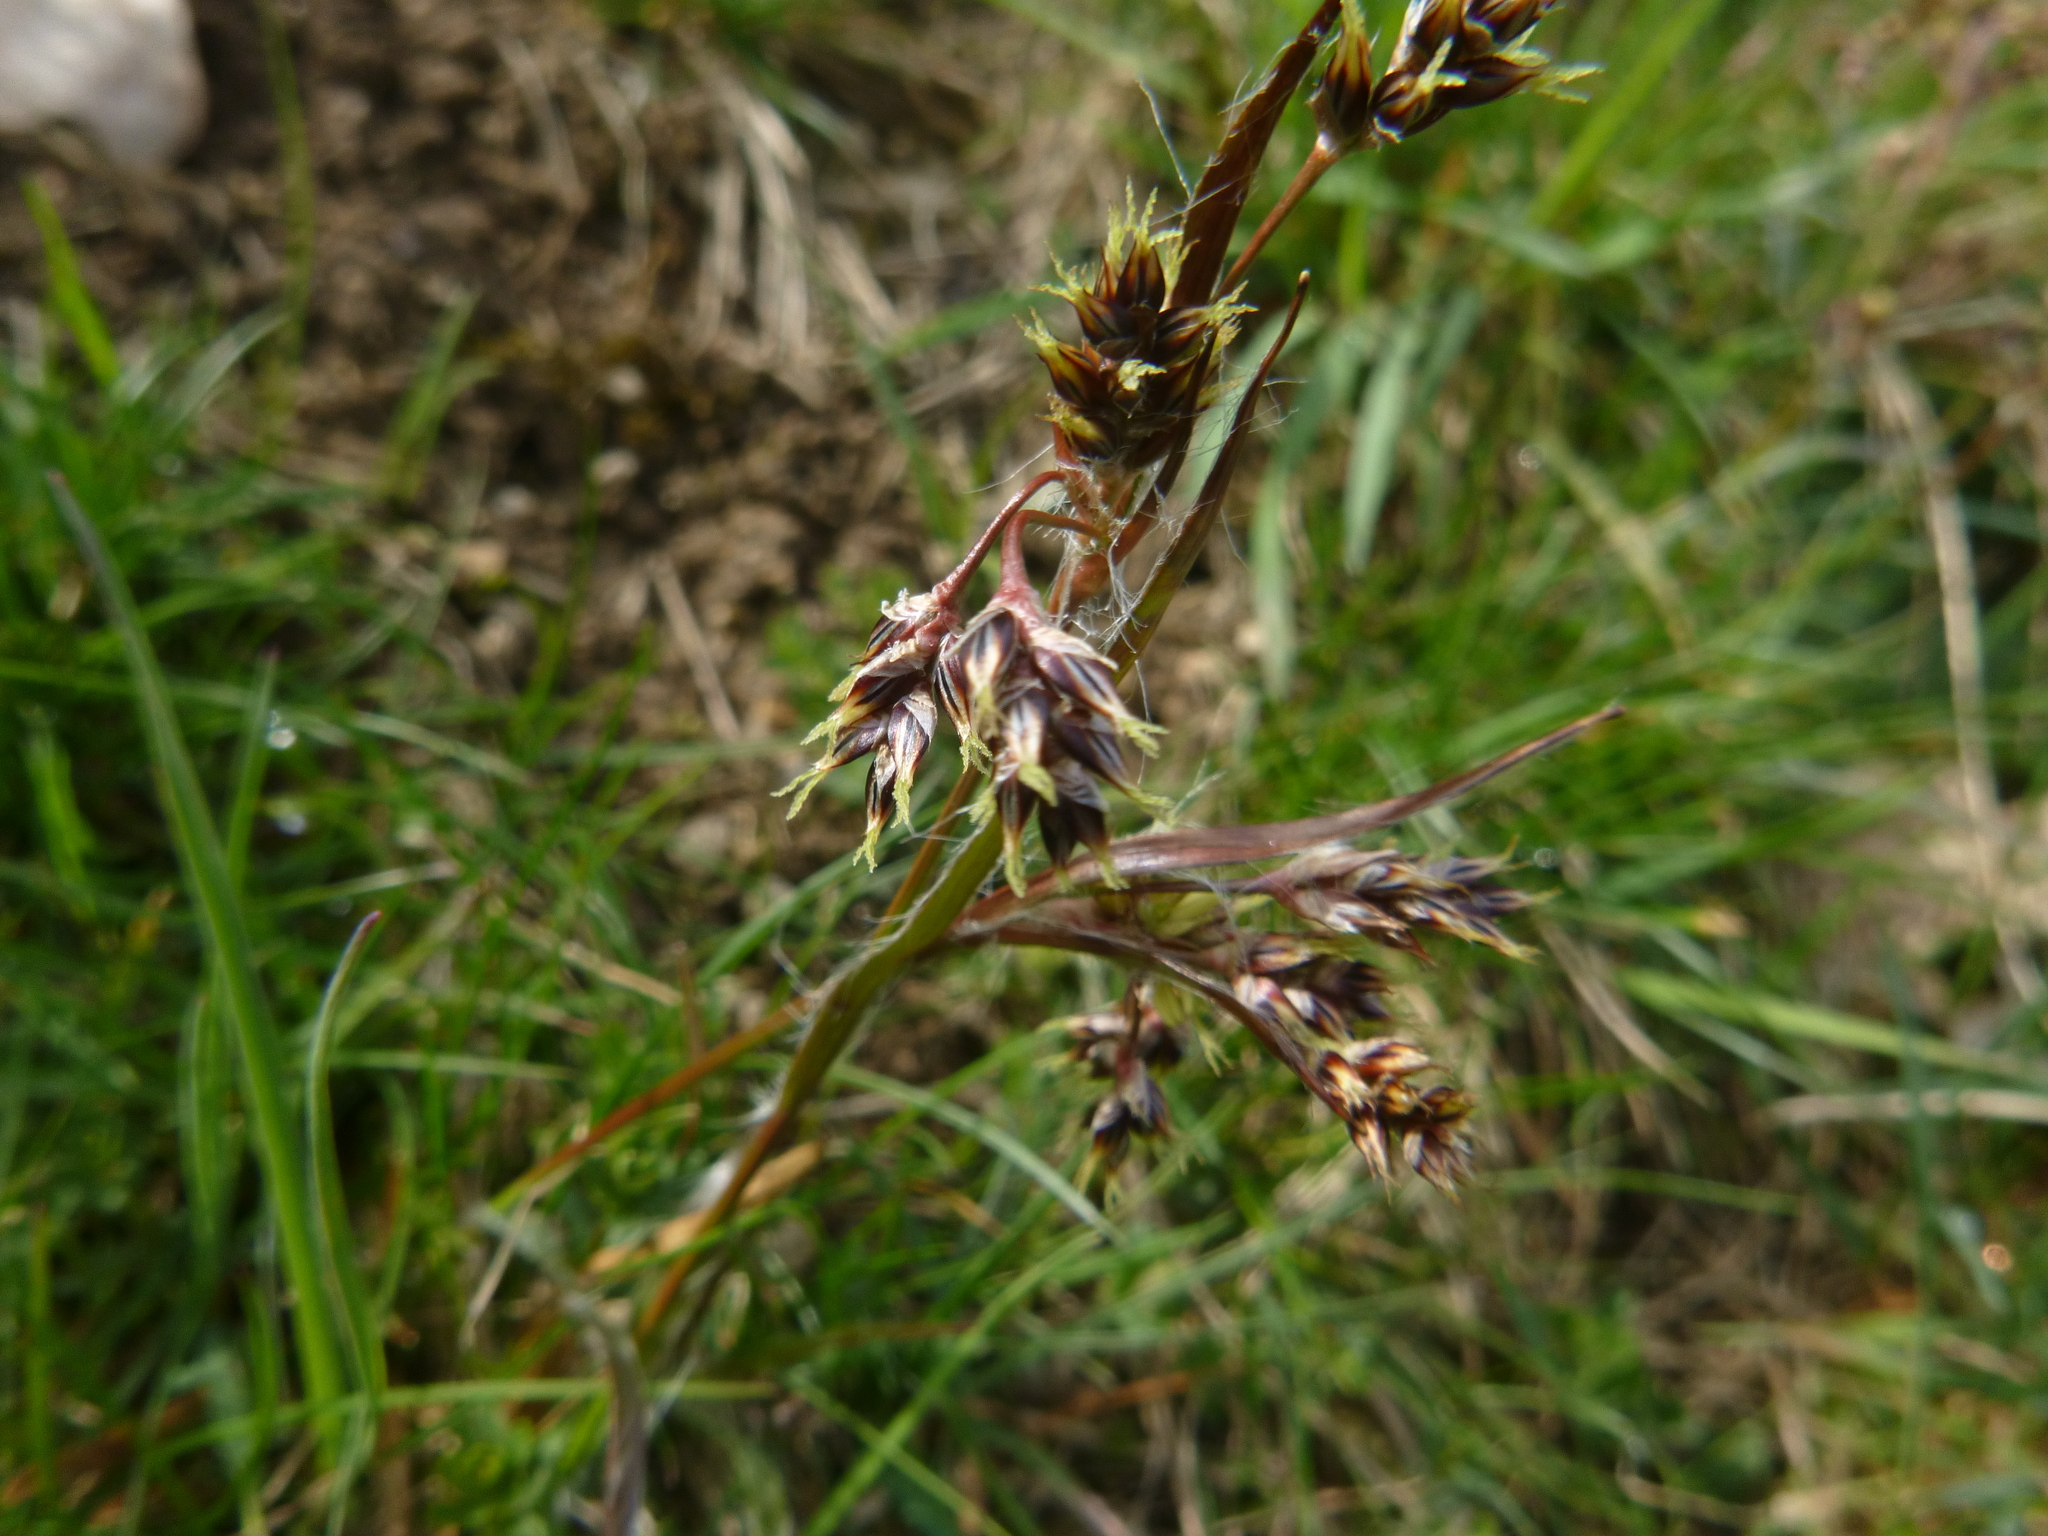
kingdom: Plantae
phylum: Tracheophyta
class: Liliopsida
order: Poales
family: Juncaceae
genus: Luzula
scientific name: Luzula campestris
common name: Field wood-rush
